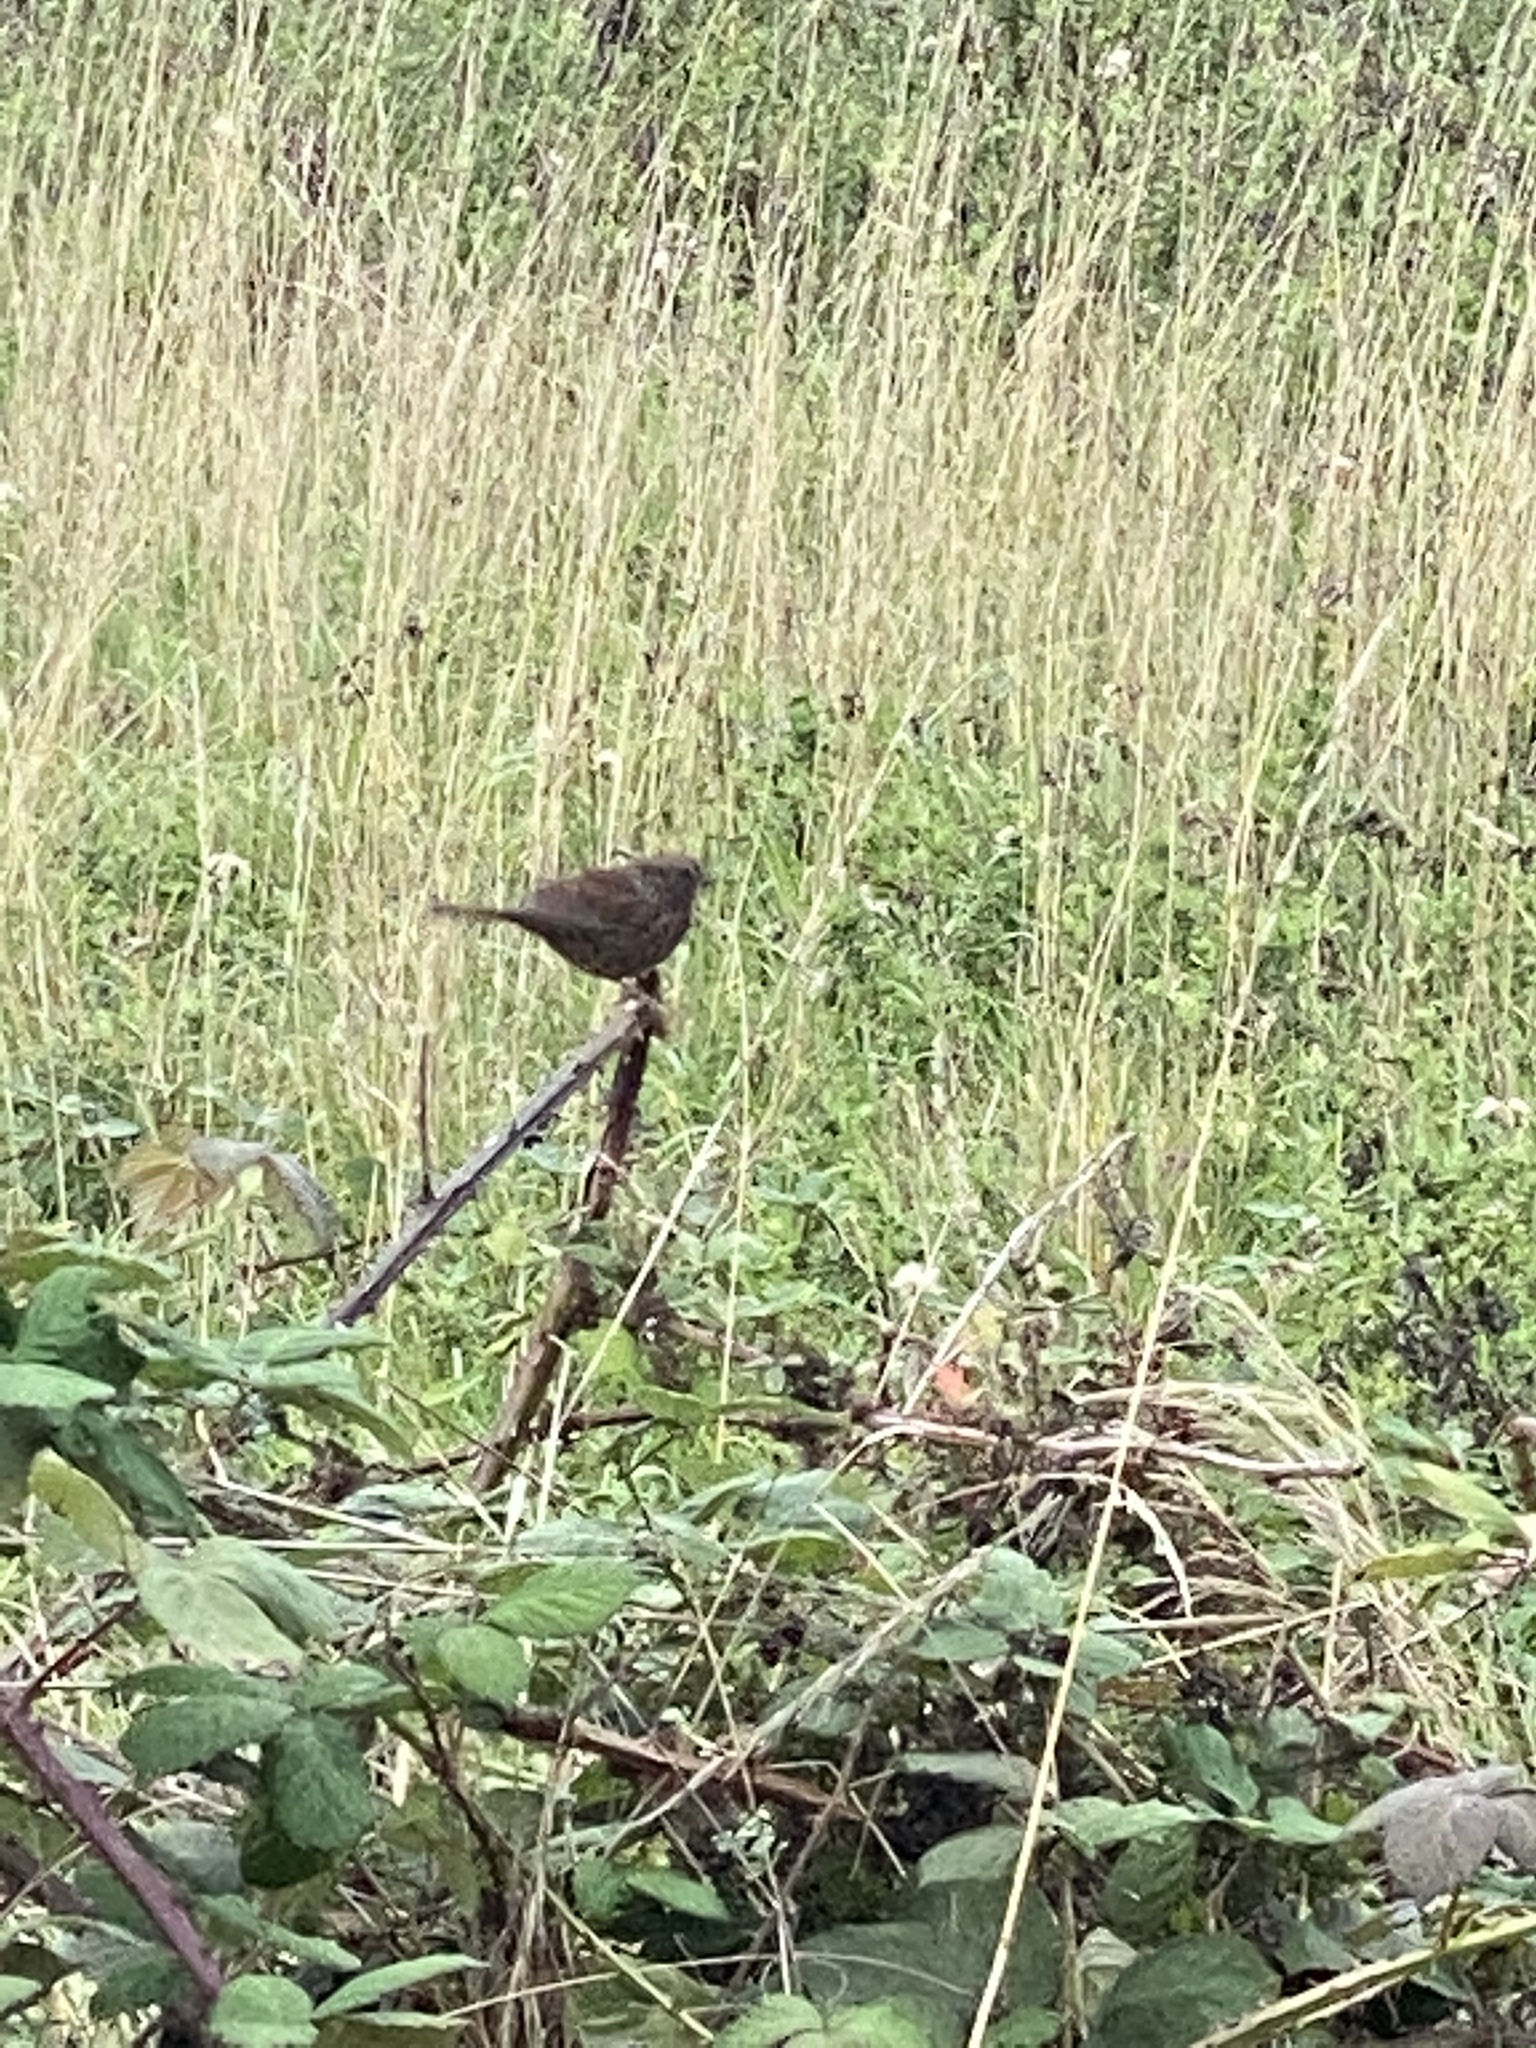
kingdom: Animalia
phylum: Chordata
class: Aves
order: Passeriformes
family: Passerellidae
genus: Melospiza
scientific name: Melospiza melodia
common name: Song sparrow
